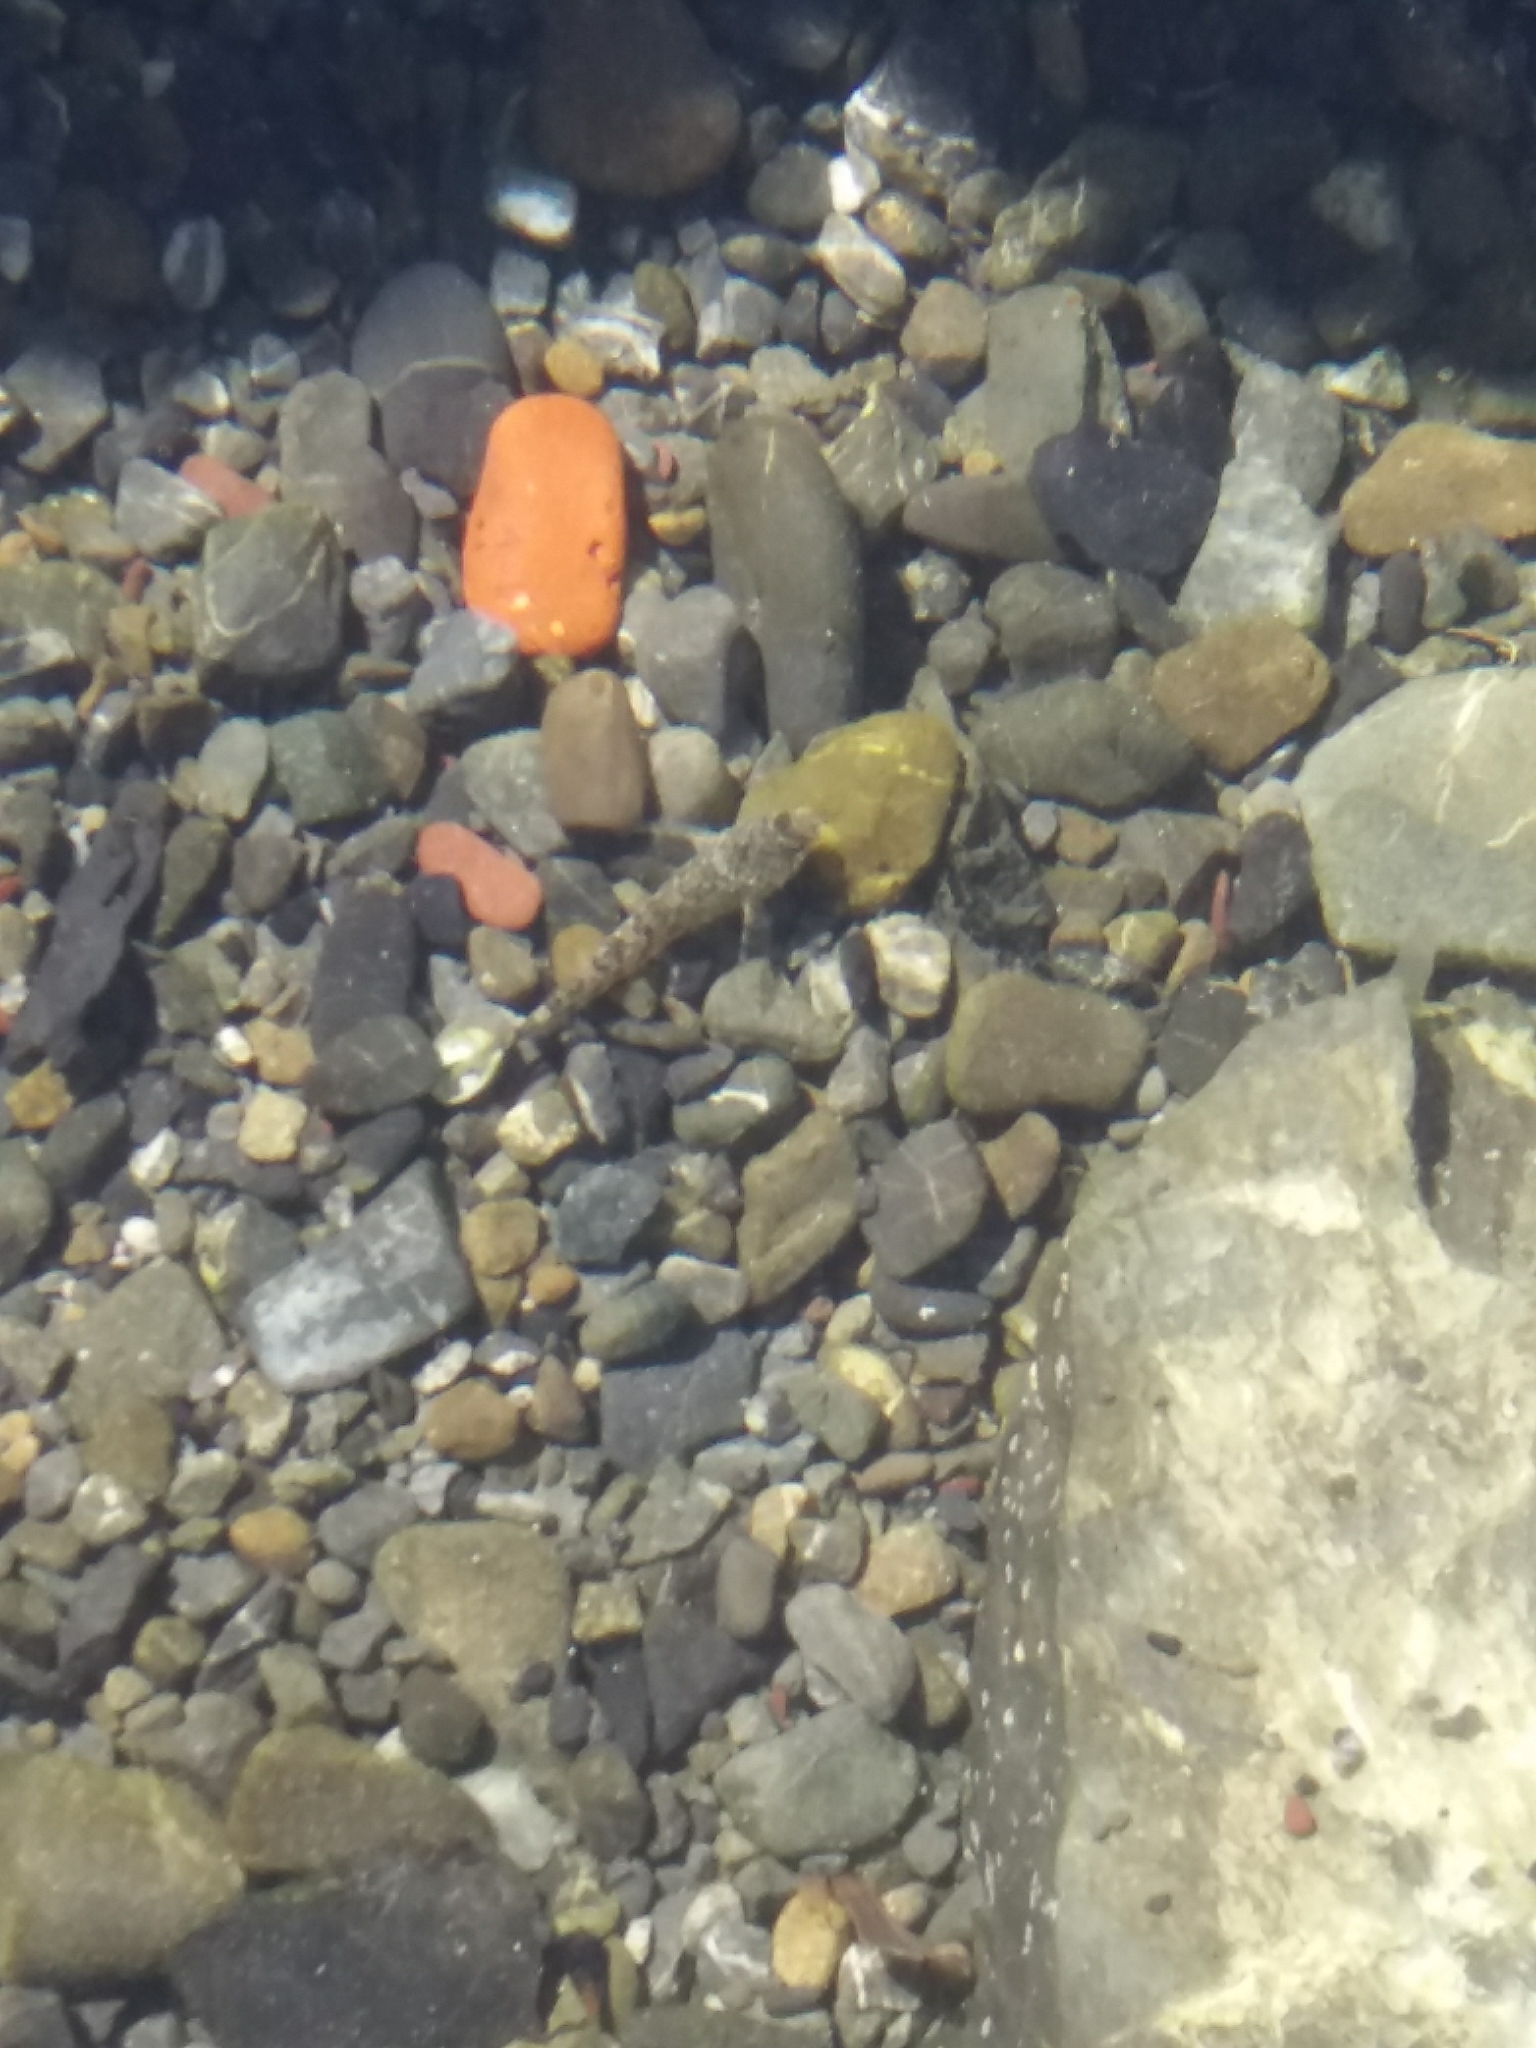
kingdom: Animalia
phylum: Chordata
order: Perciformes
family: Tripterygiidae
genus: Bellapiscis
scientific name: Bellapiscis medius
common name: Twister
